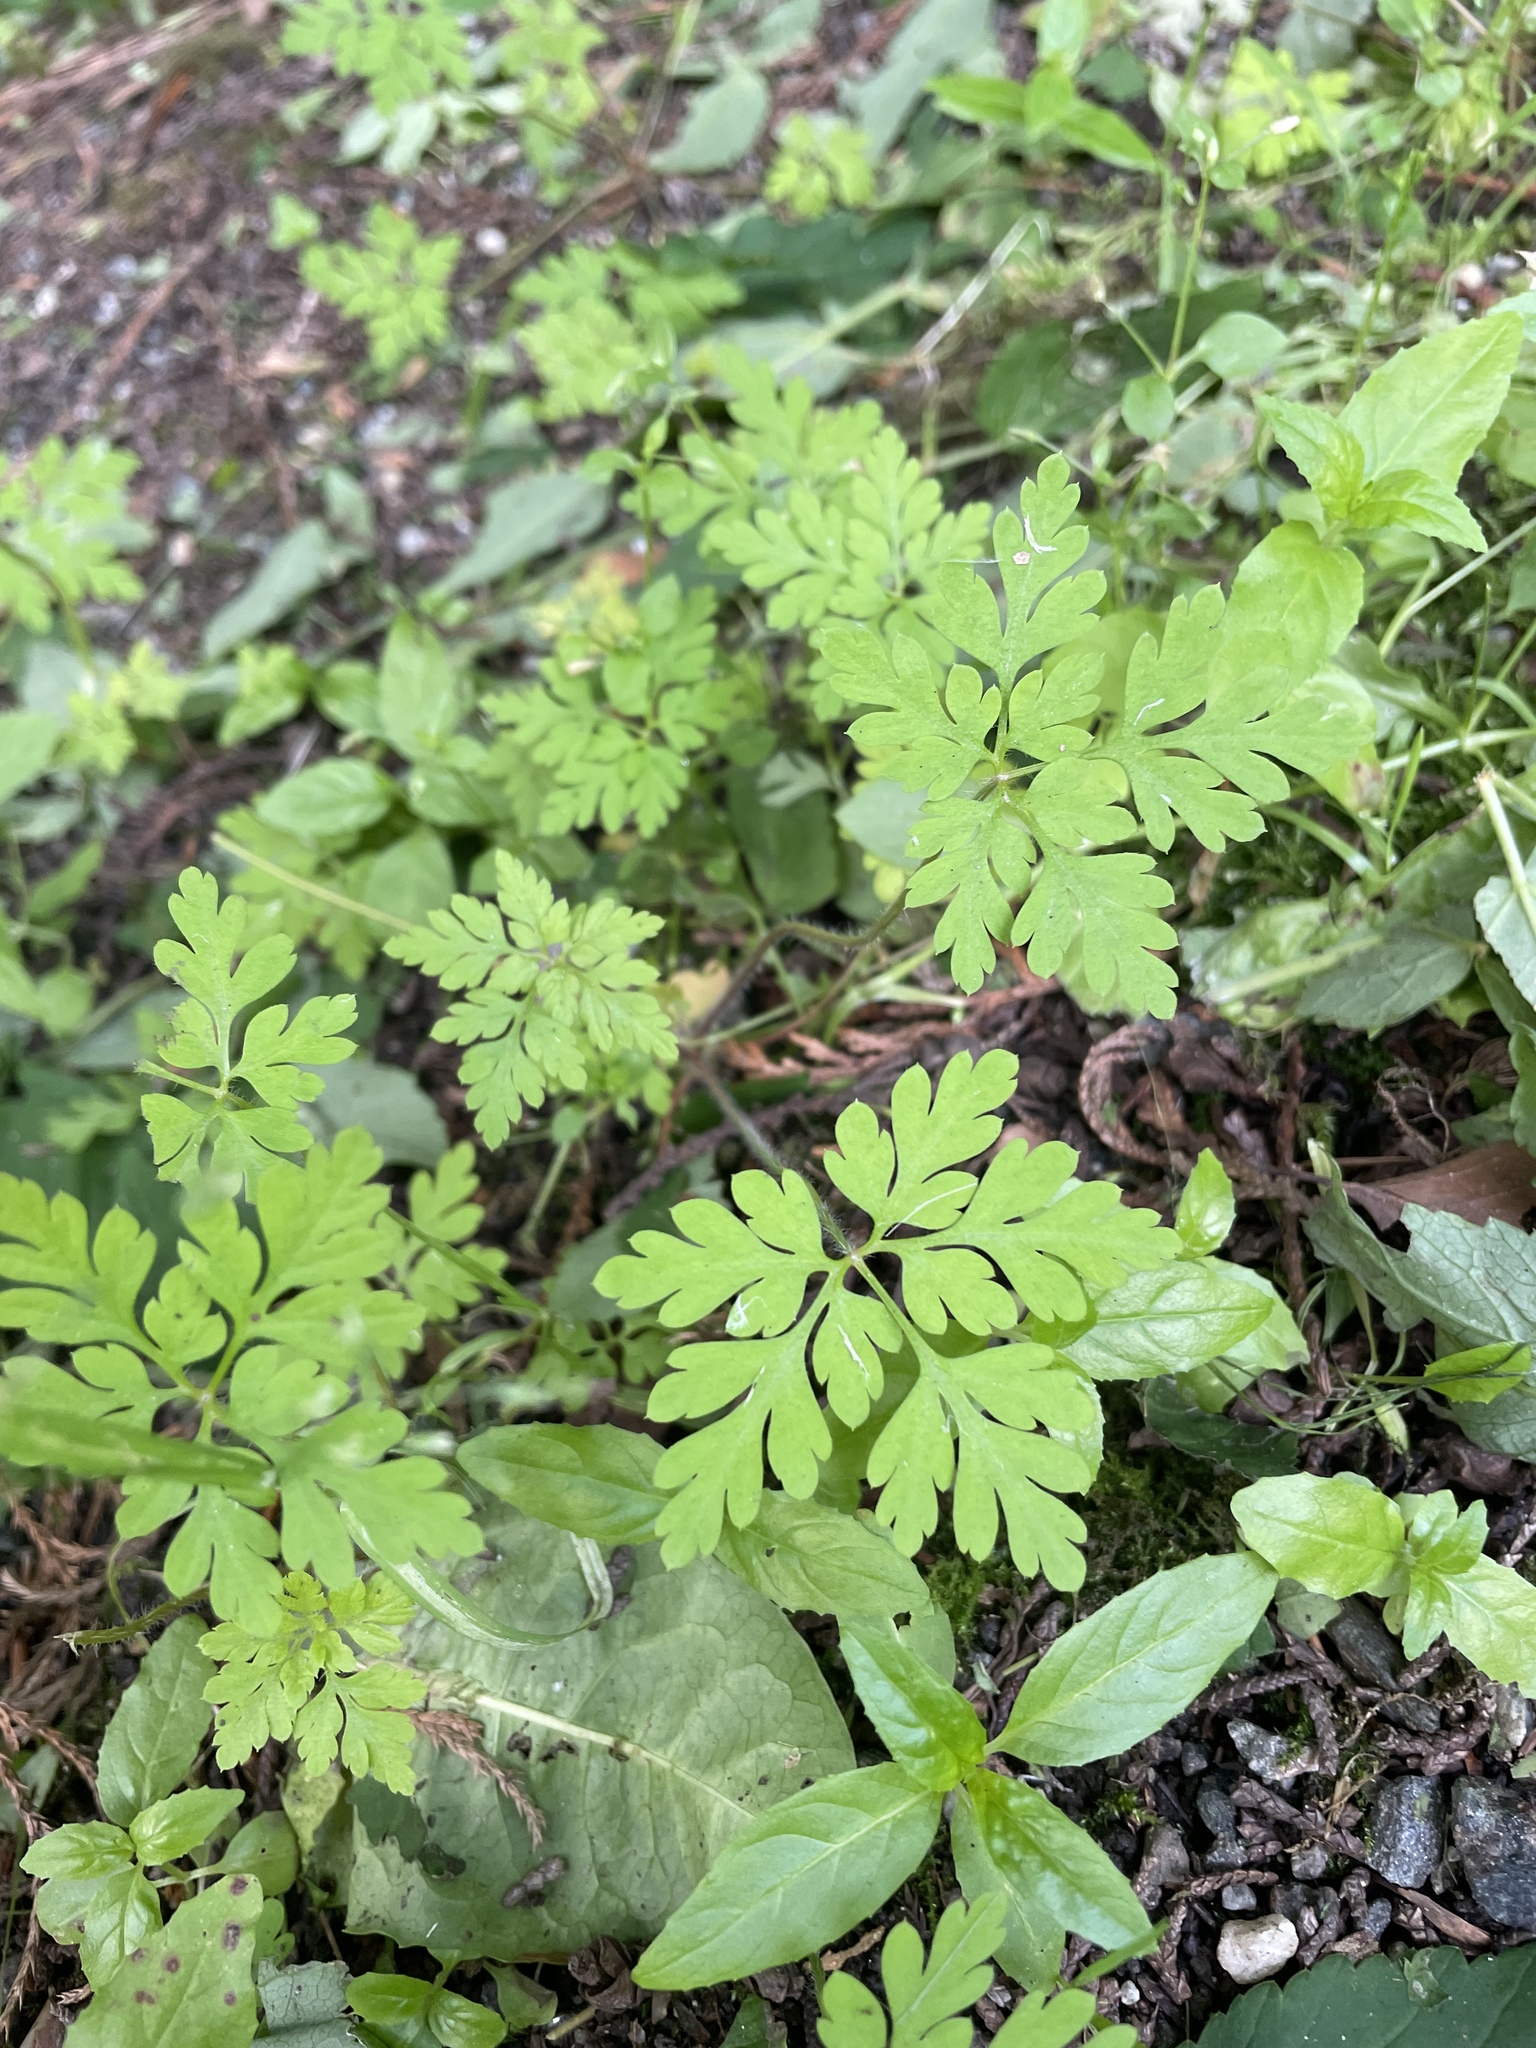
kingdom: Plantae
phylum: Tracheophyta
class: Magnoliopsida
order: Geraniales
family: Geraniaceae
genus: Geranium
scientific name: Geranium robertianum
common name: Herb-robert
